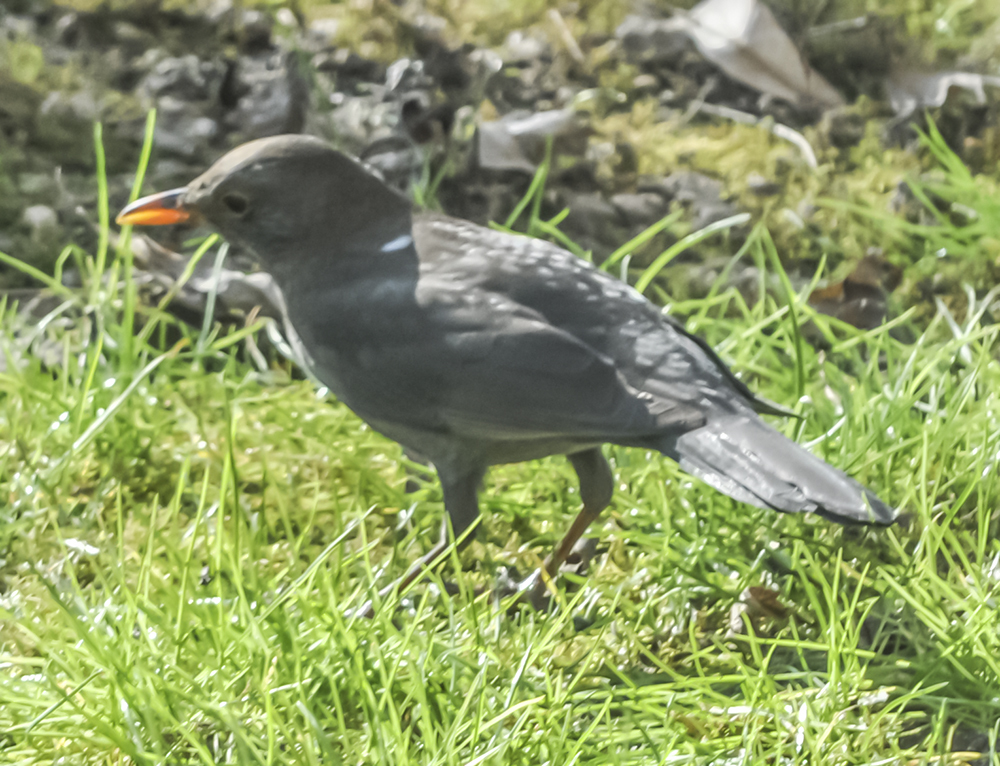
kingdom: Animalia
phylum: Chordata
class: Aves
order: Passeriformes
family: Turdidae
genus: Turdus
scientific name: Turdus merula
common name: Common blackbird
